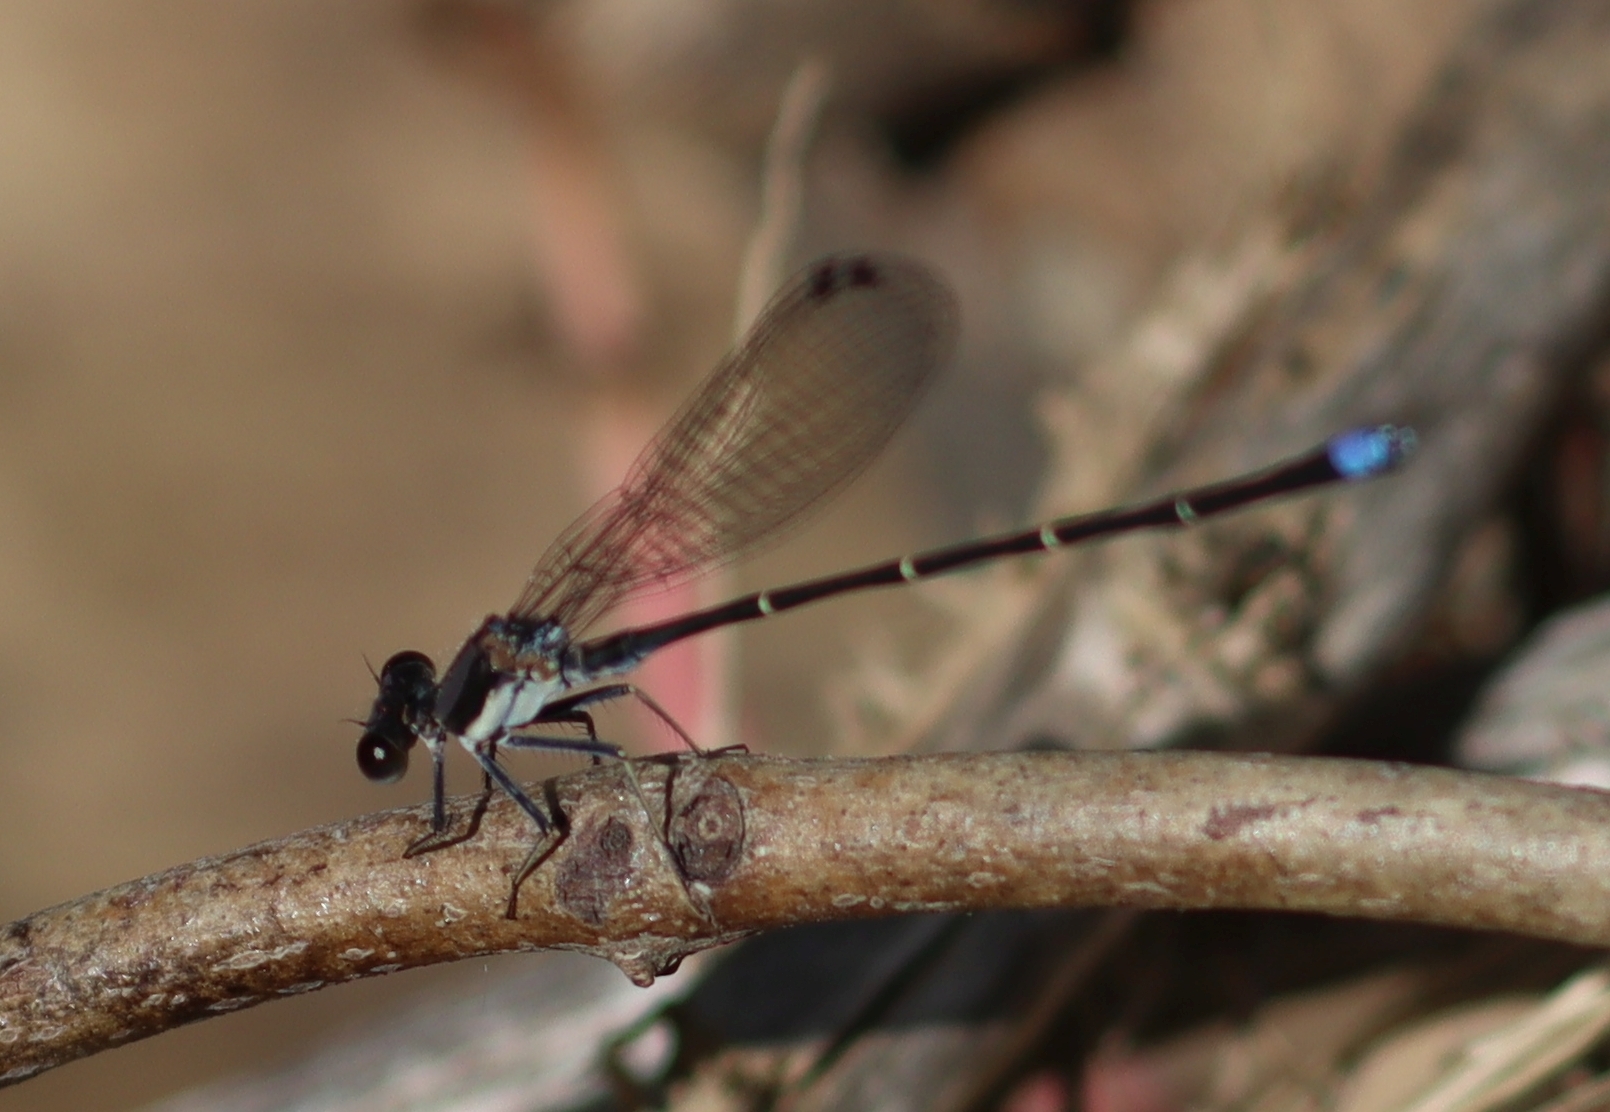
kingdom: Animalia
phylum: Arthropoda
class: Insecta
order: Odonata
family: Coenagrionidae
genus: Argia
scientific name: Argia tibialis
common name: Blue-tipped dancer
